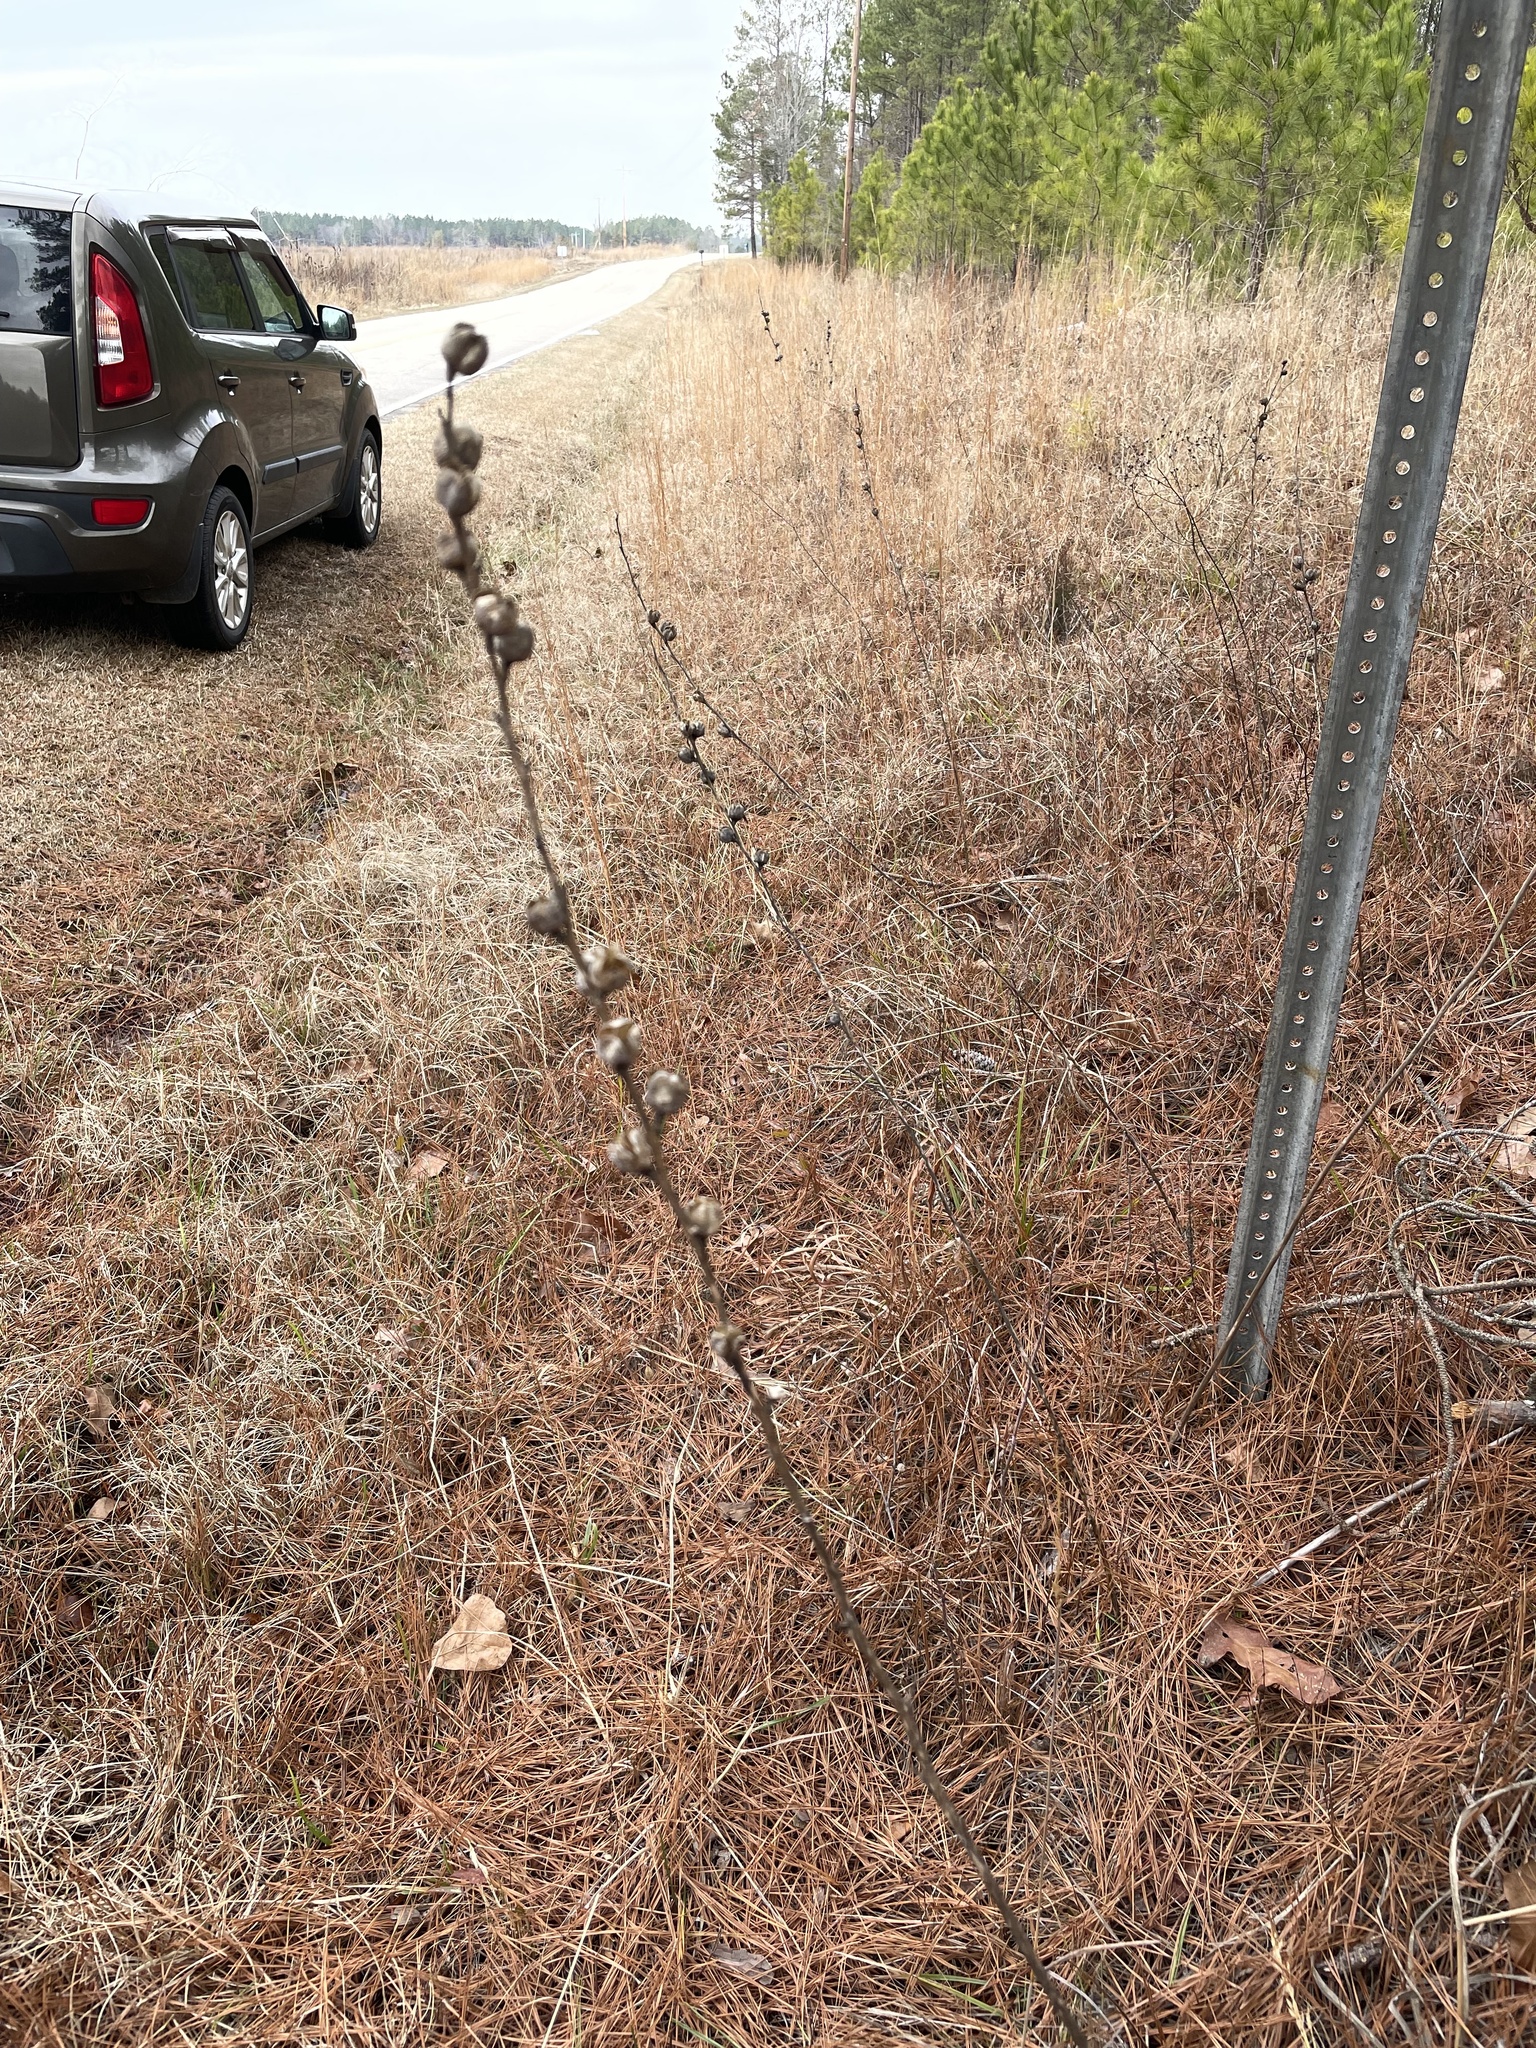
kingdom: Plantae
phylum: Tracheophyta
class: Liliopsida
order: Asparagales
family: Asparagaceae
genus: Agave
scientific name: Agave virginica
